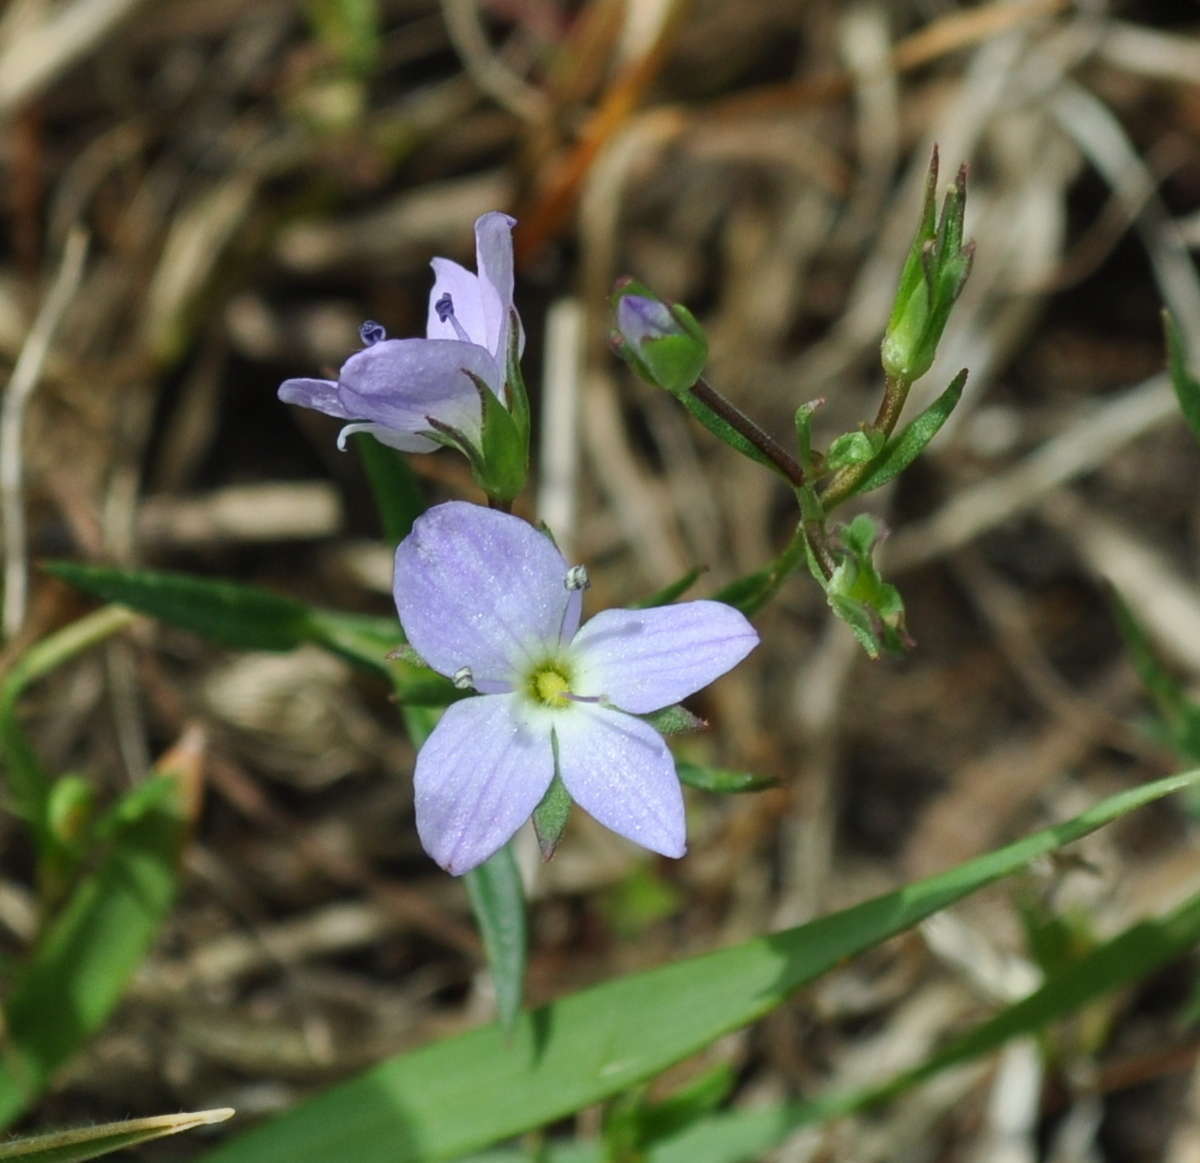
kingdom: Plantae
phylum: Tracheophyta
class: Magnoliopsida
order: Lamiales
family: Plantaginaceae
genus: Veronica
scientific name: Veronica gracilis
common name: Slender speedwell
